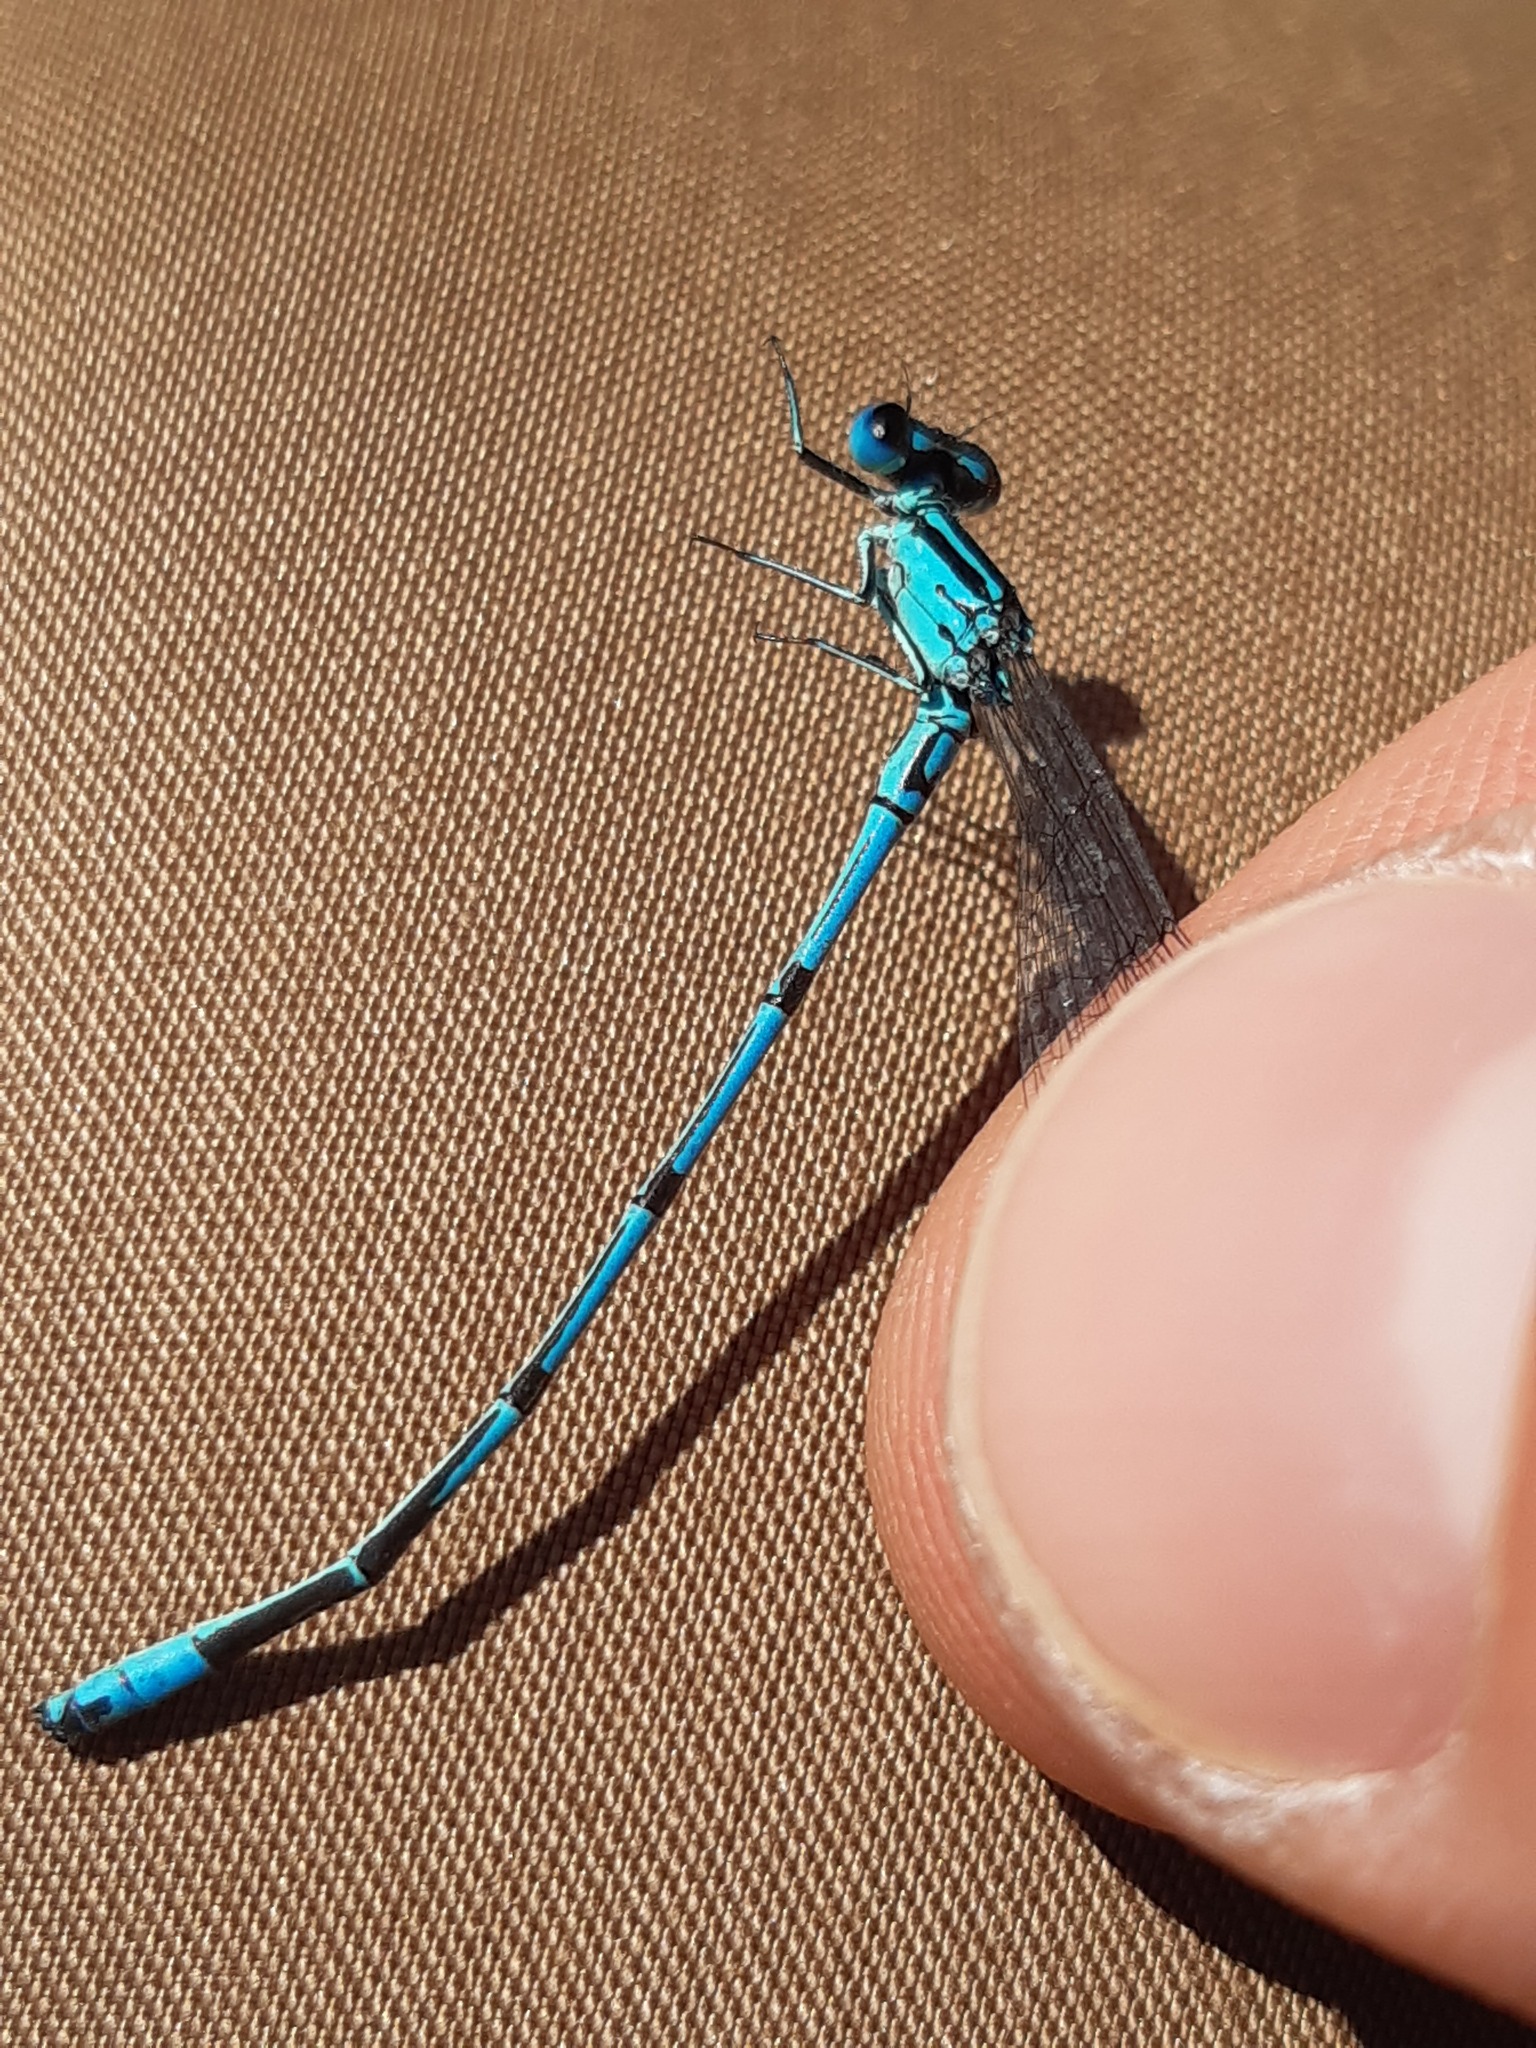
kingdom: Animalia
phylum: Arthropoda
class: Insecta
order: Odonata
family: Coenagrionidae
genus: Coenagrion
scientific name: Coenagrion puella
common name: Azure damselfly
